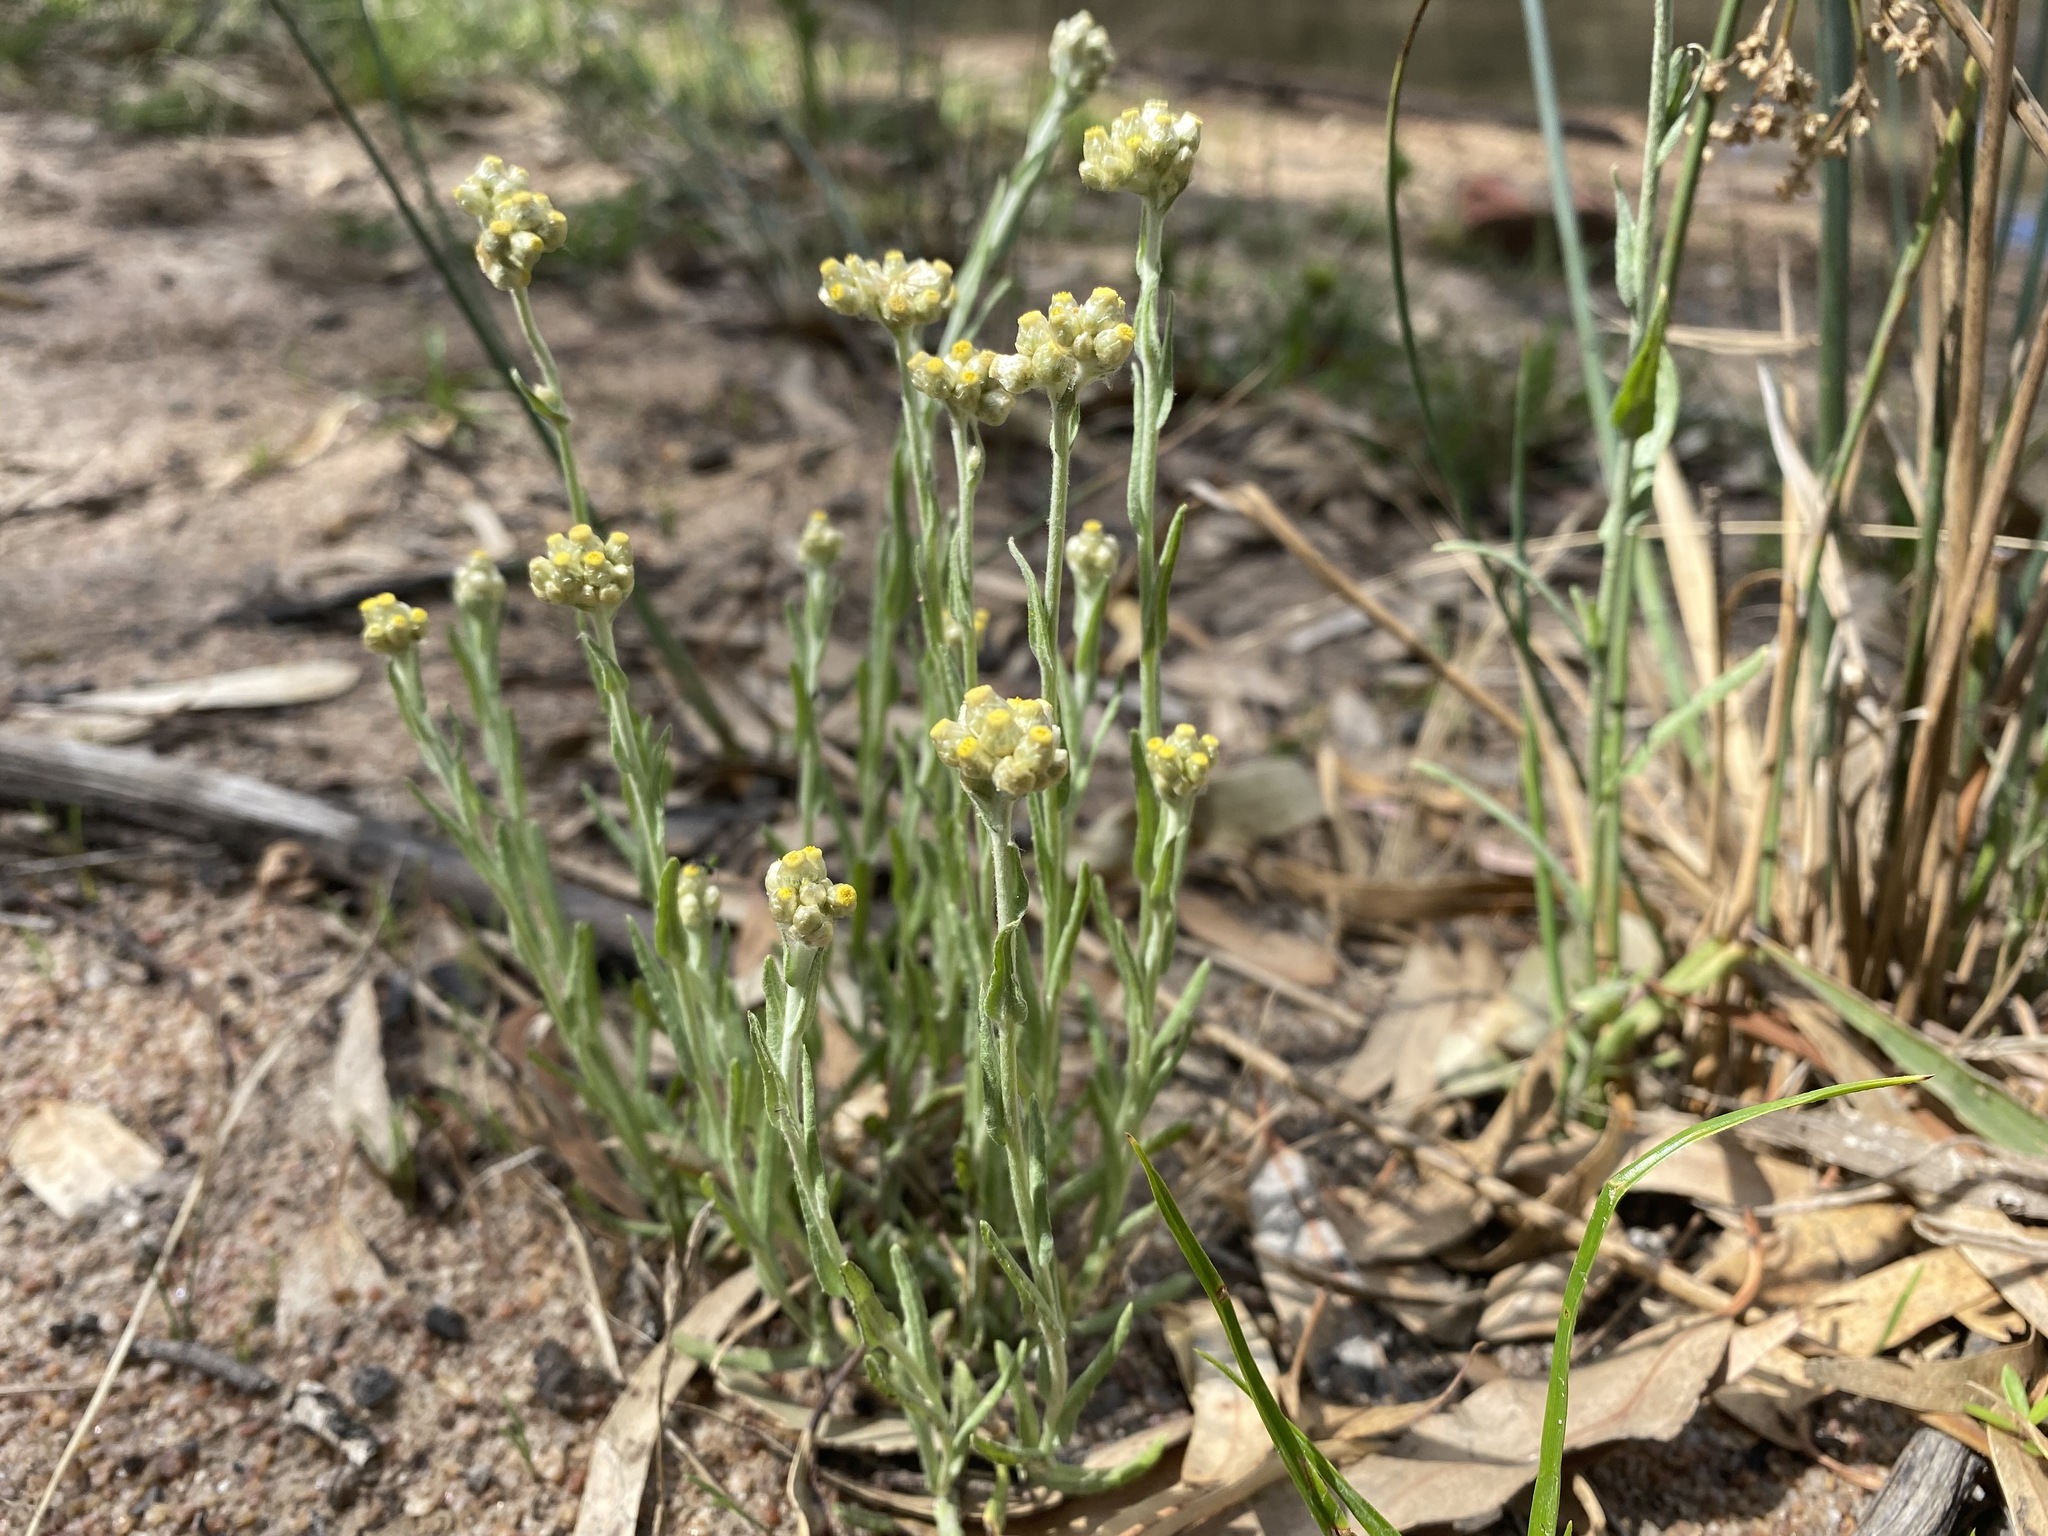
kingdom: Plantae
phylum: Tracheophyta
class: Magnoliopsida
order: Asterales
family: Asteraceae
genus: Helichrysum
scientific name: Helichrysum luteoalbum
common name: Daisy
